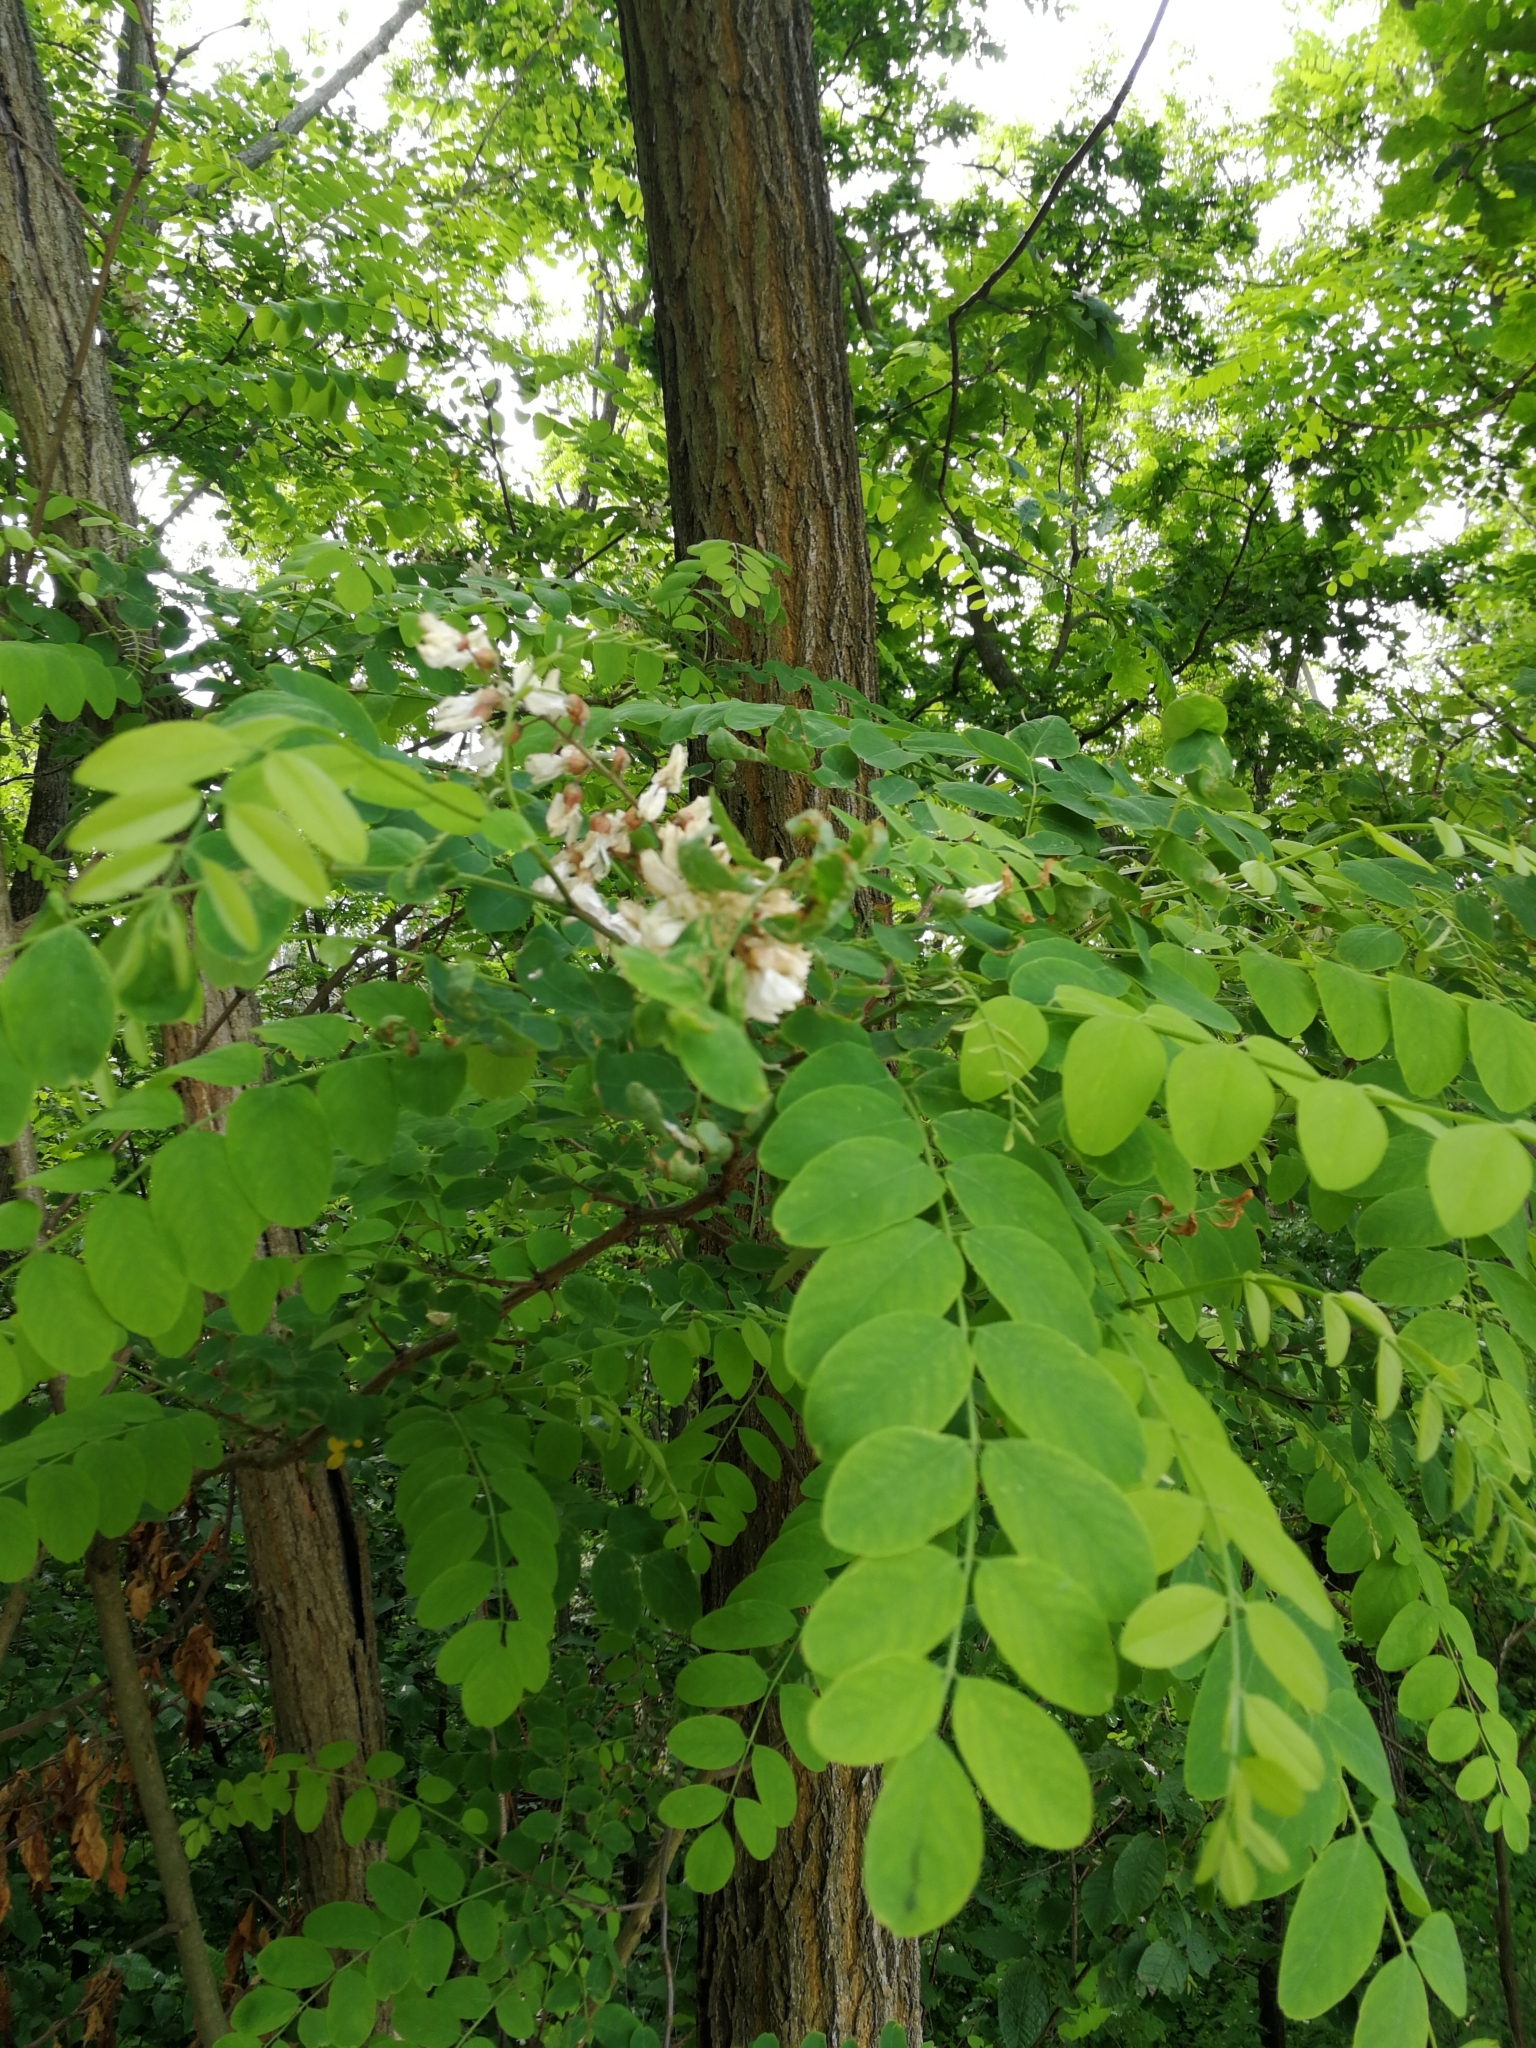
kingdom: Plantae
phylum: Tracheophyta
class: Magnoliopsida
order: Fabales
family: Fabaceae
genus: Robinia
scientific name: Robinia pseudoacacia
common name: Black locust
